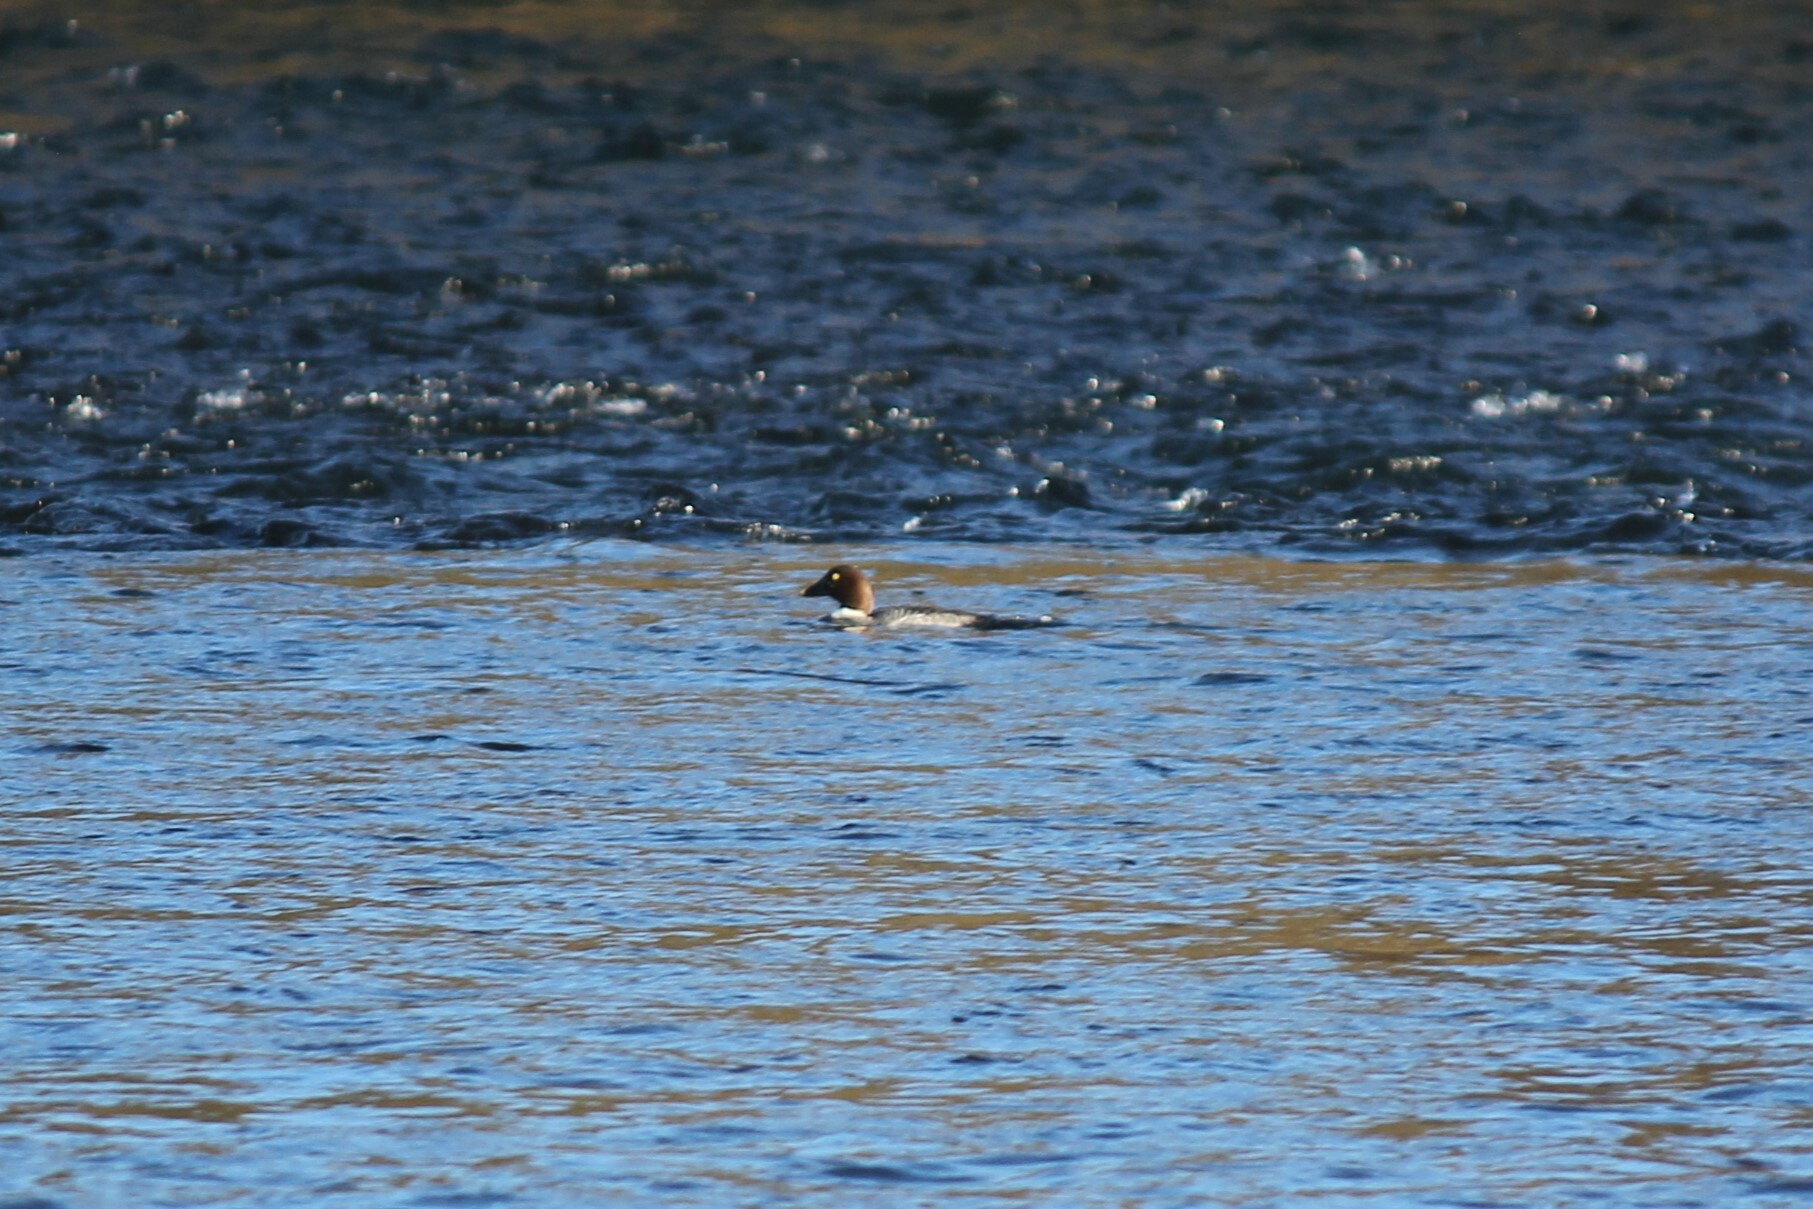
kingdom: Animalia
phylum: Chordata
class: Aves
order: Anseriformes
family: Anatidae
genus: Bucephala
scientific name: Bucephala clangula
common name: Common goldeneye
